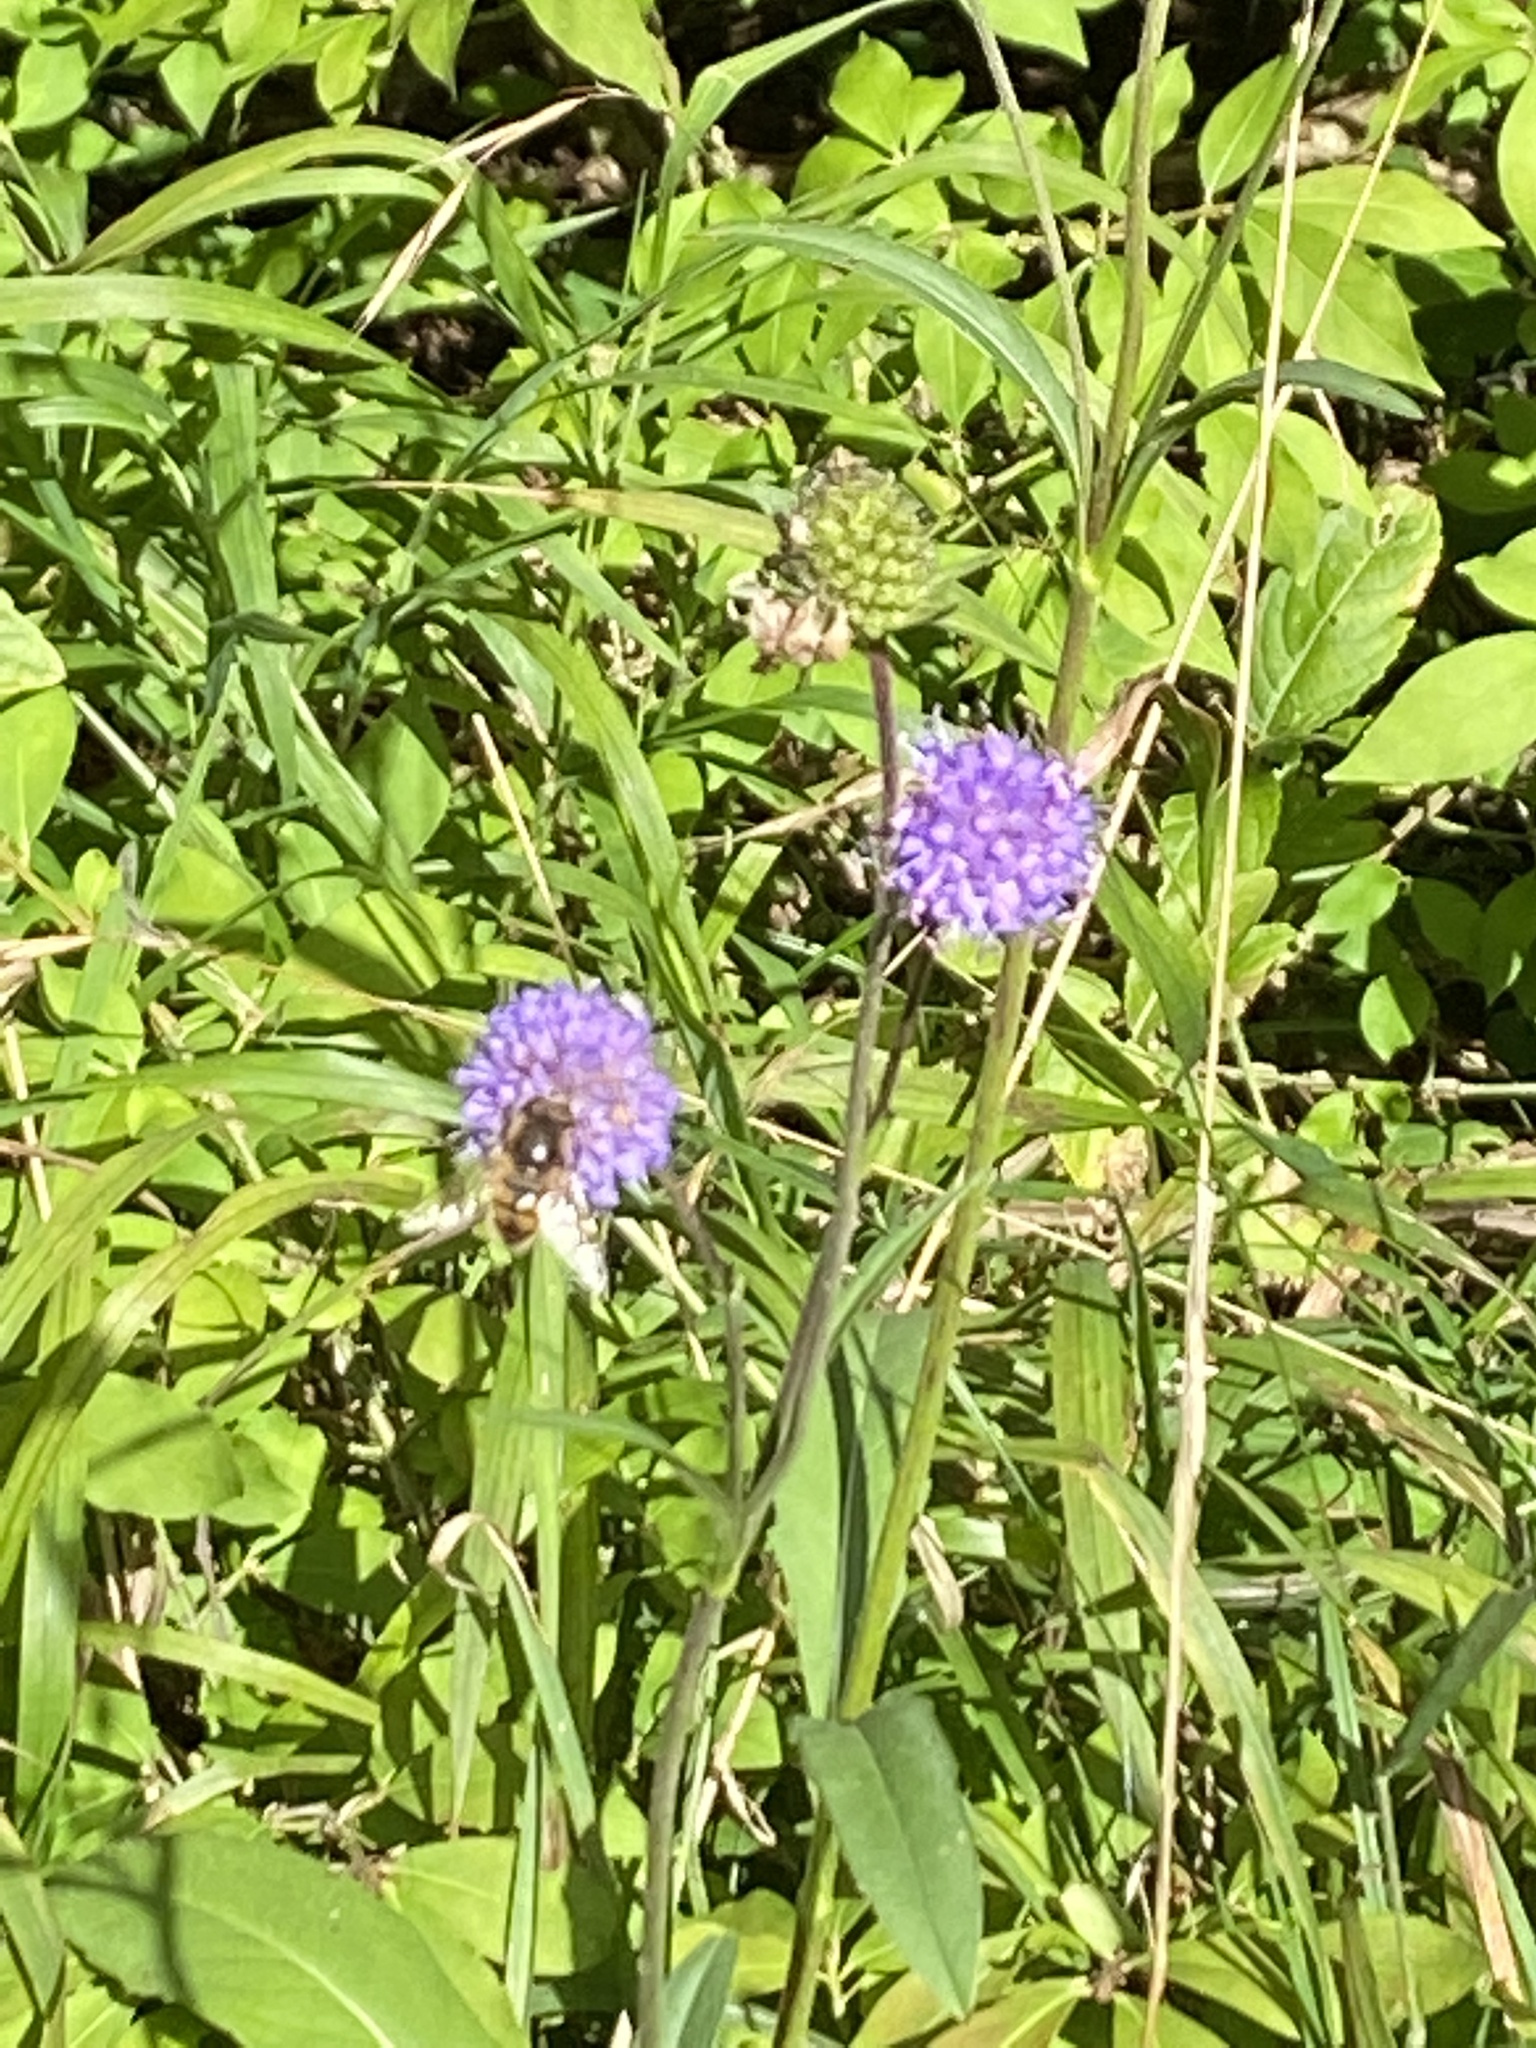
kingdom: Plantae
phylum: Tracheophyta
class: Magnoliopsida
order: Dipsacales
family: Caprifoliaceae
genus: Succisa
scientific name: Succisa pratensis
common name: Devil's-bit
